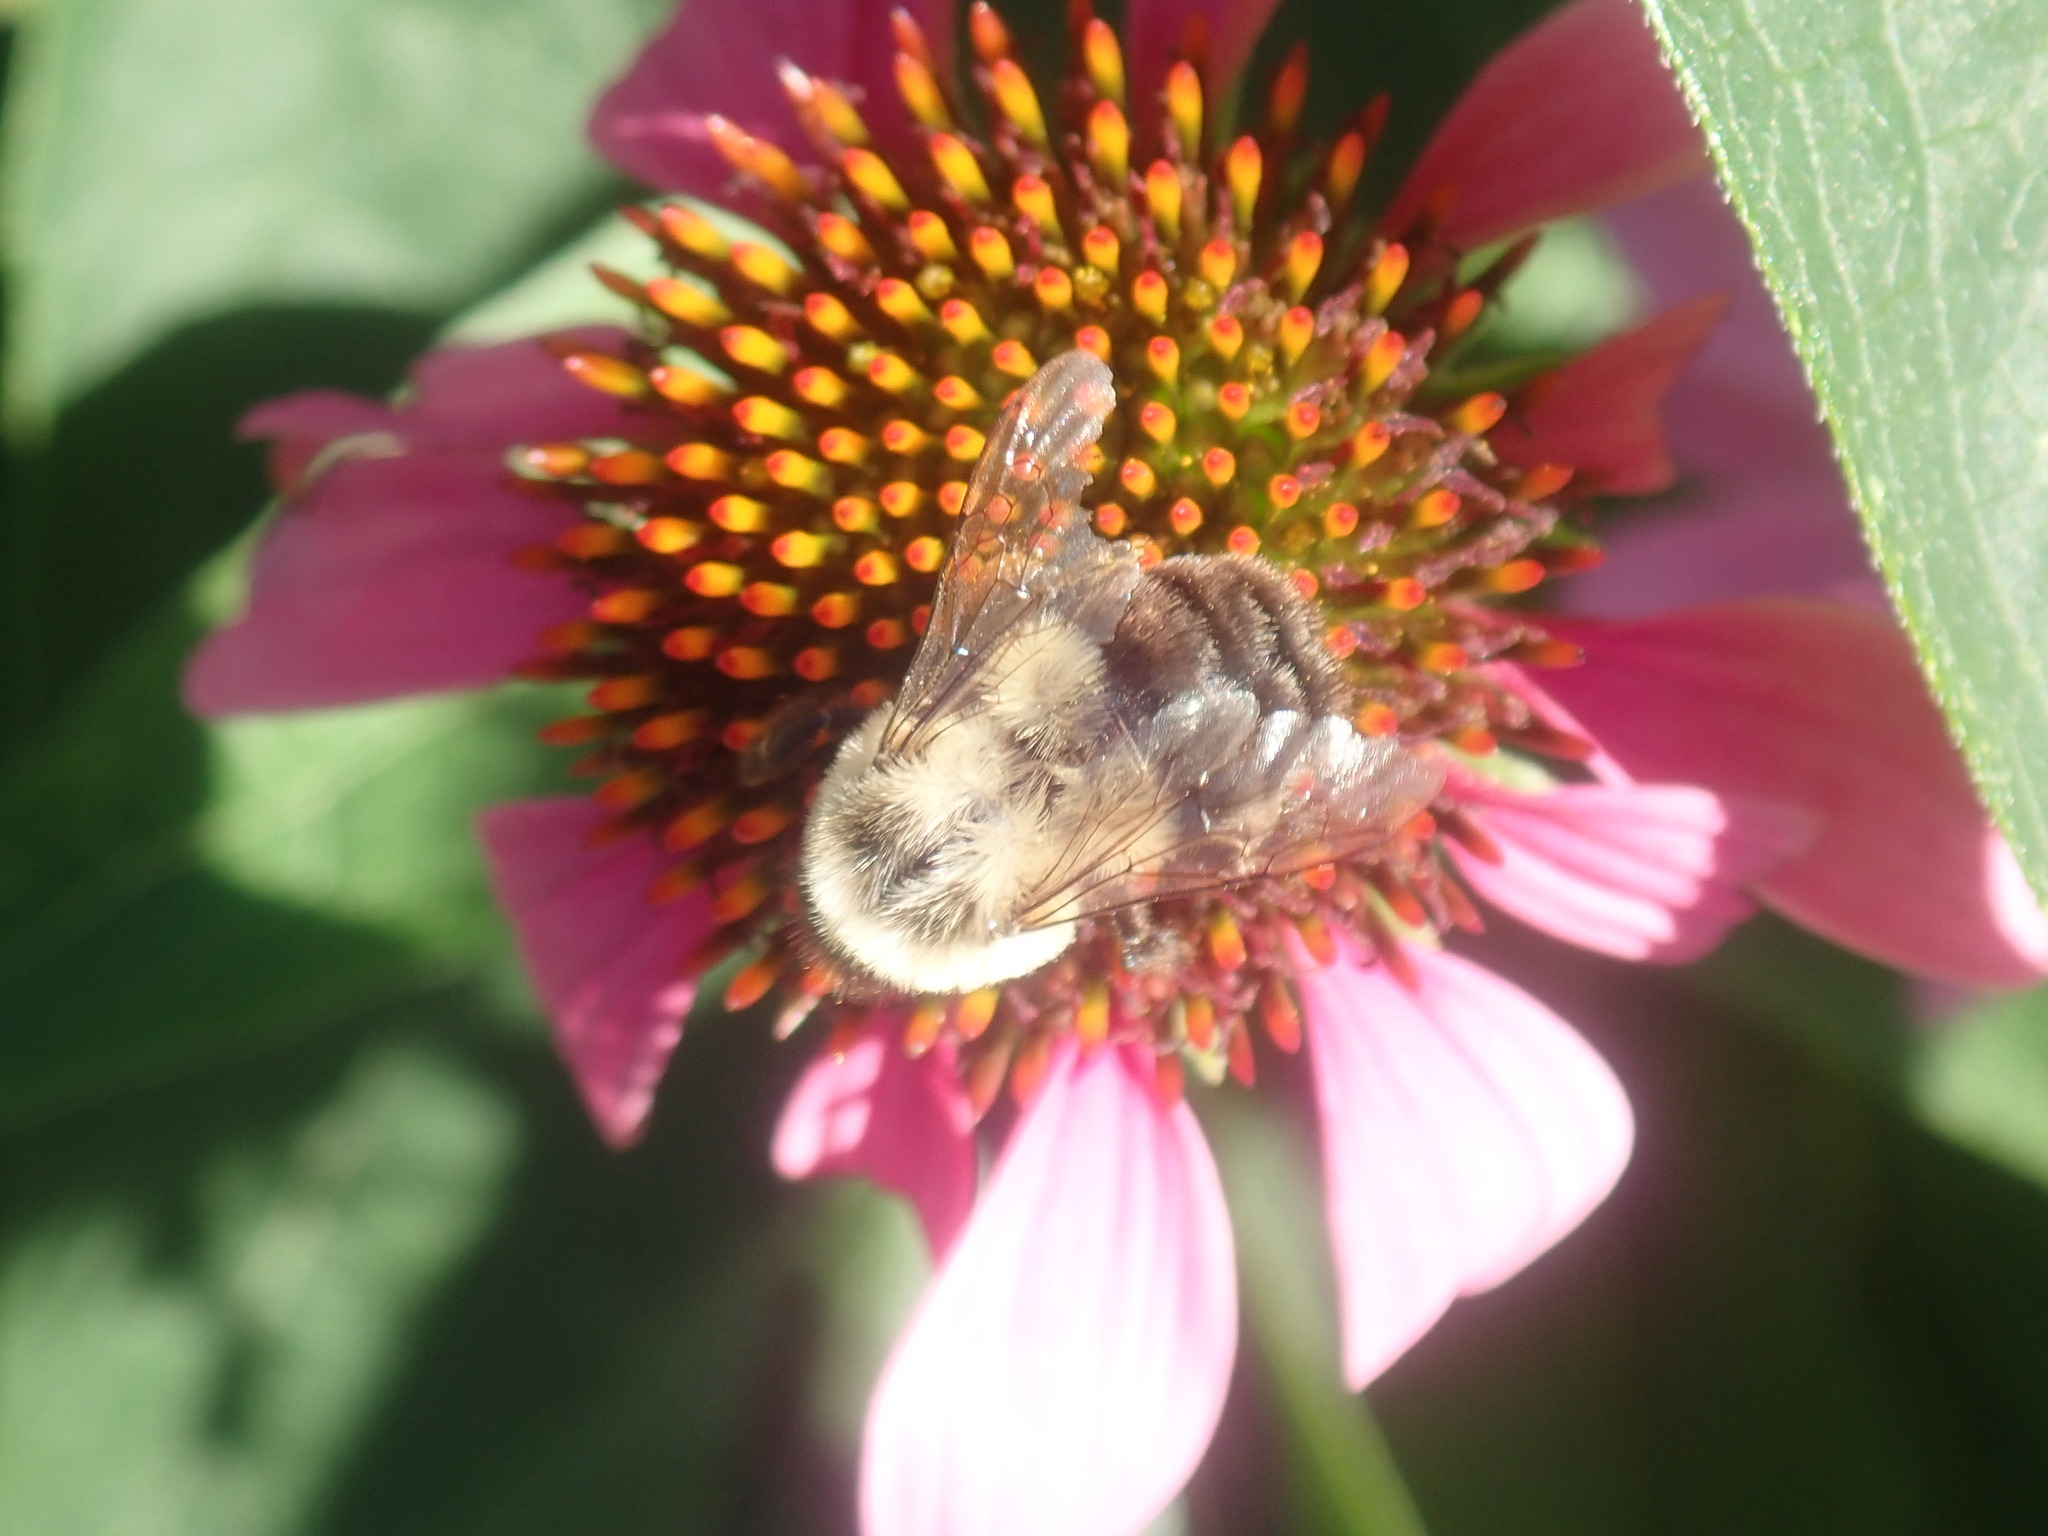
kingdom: Animalia
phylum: Arthropoda
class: Insecta
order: Hymenoptera
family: Apidae
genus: Bombus
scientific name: Bombus impatiens
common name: Common eastern bumble bee
